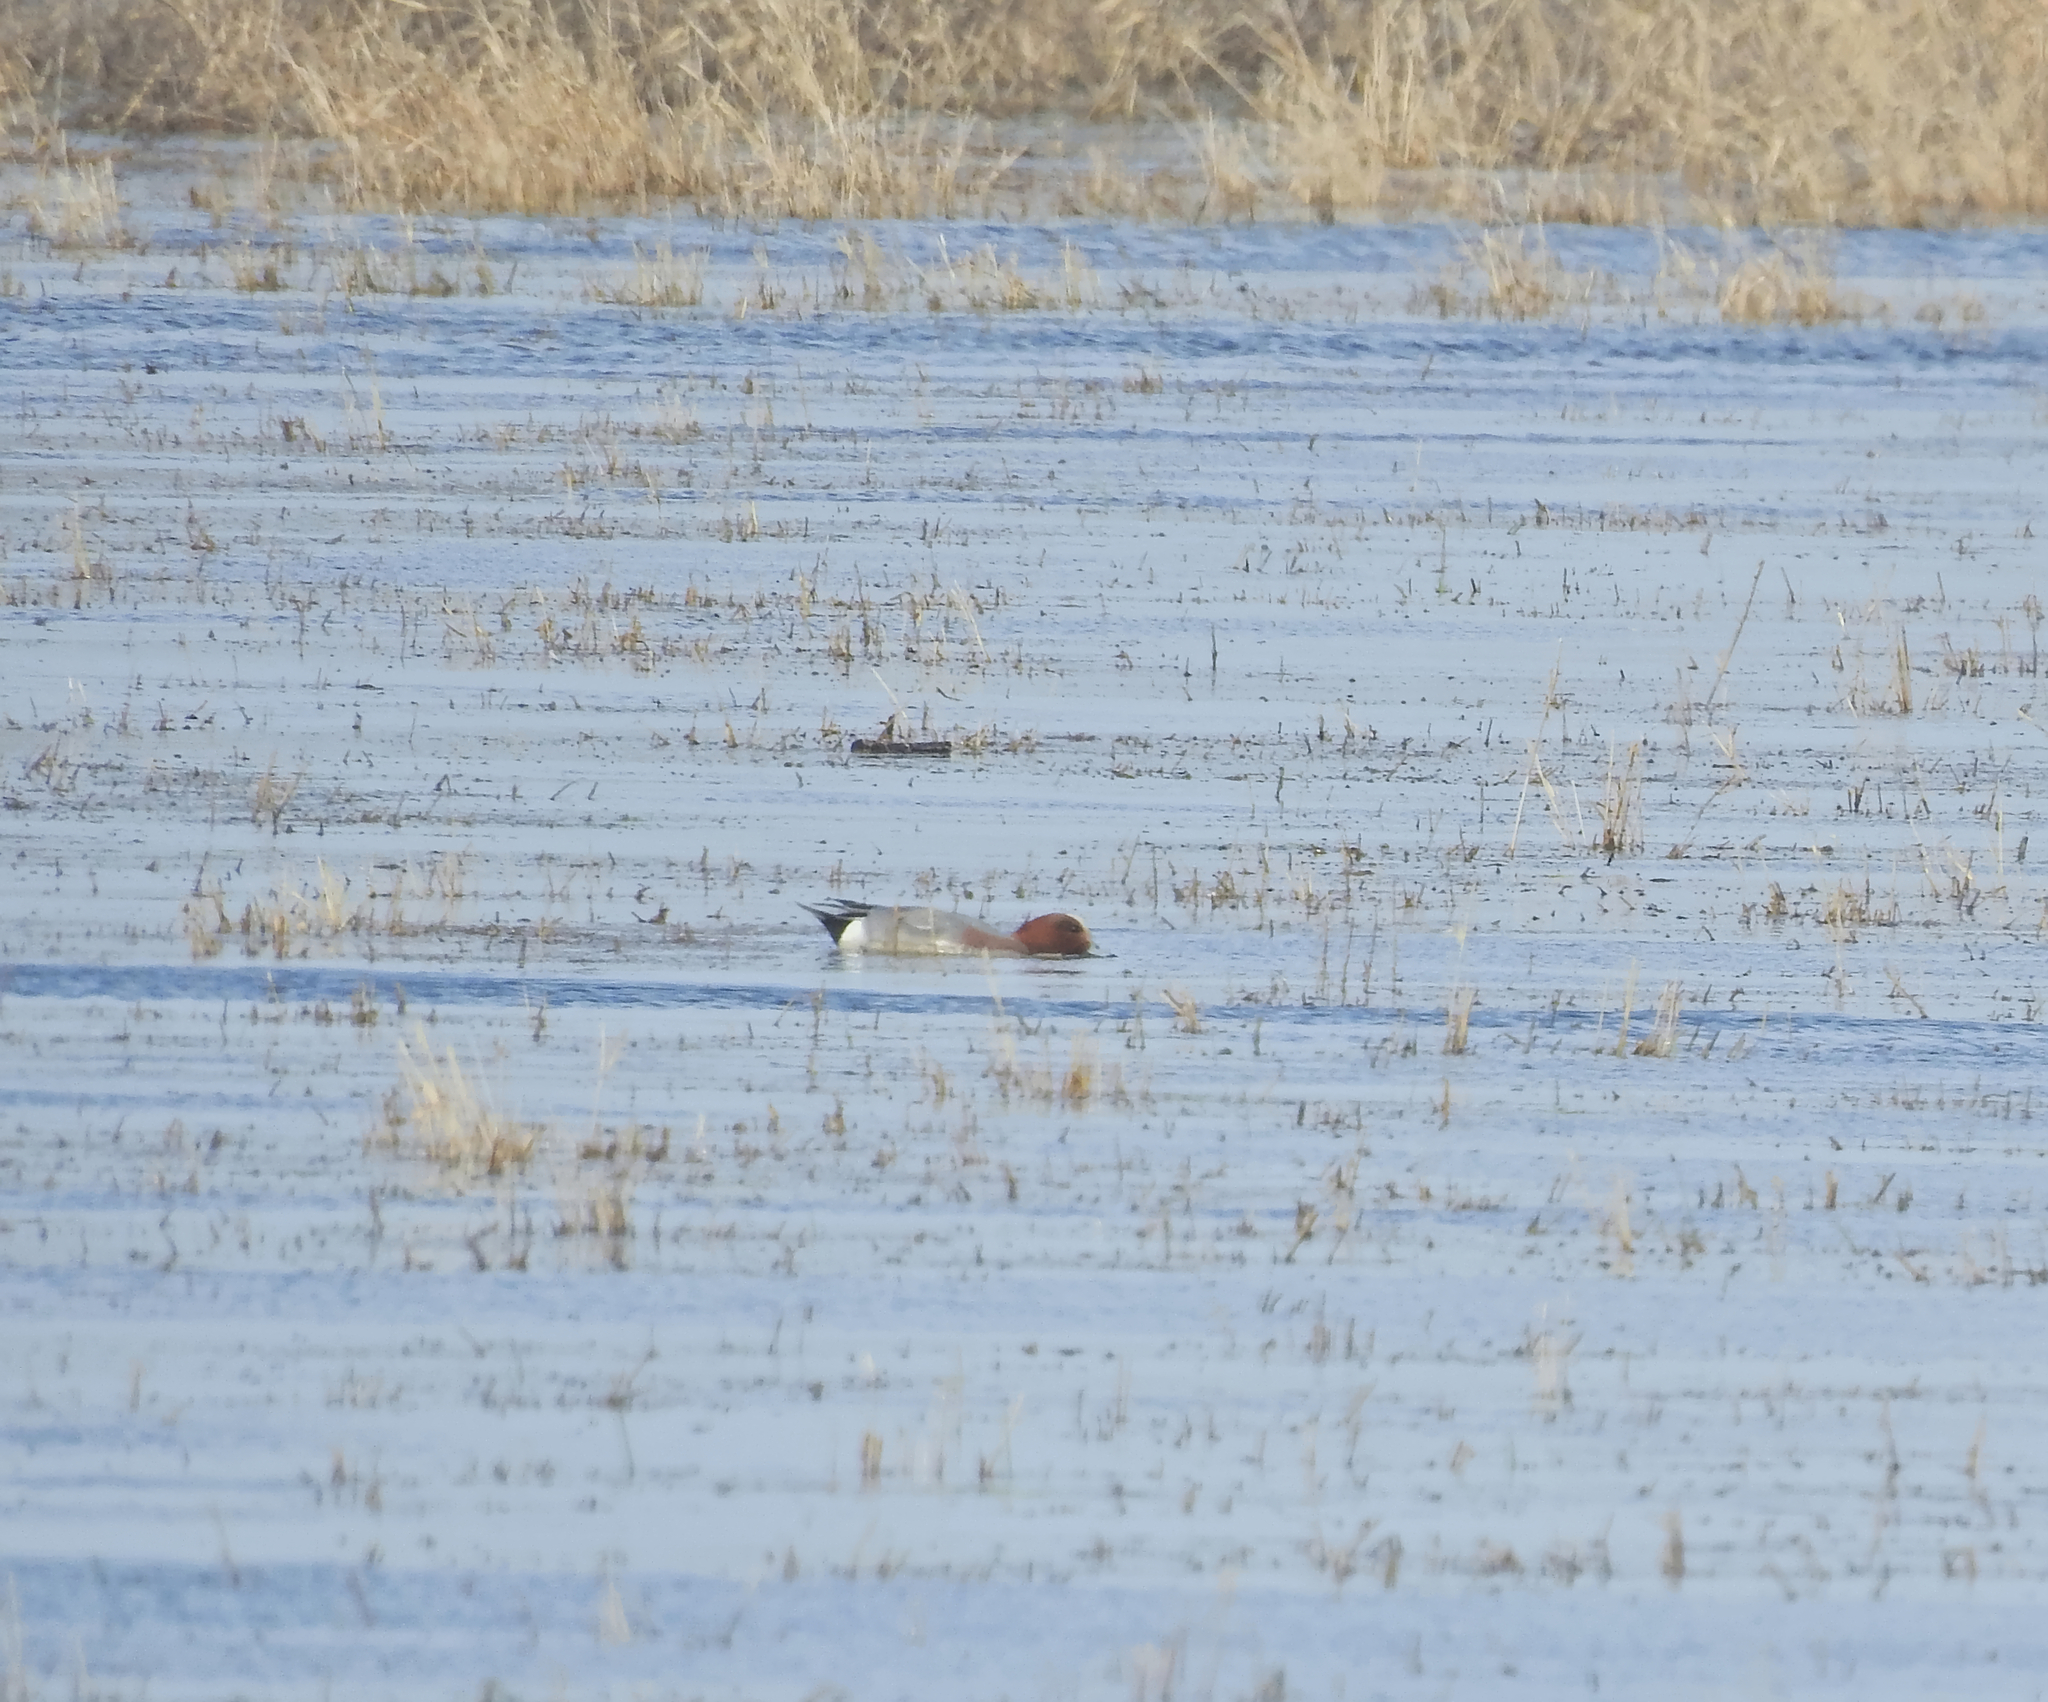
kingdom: Animalia
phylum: Chordata
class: Aves
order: Anseriformes
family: Anatidae
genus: Mareca
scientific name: Mareca penelope
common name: Eurasian wigeon
